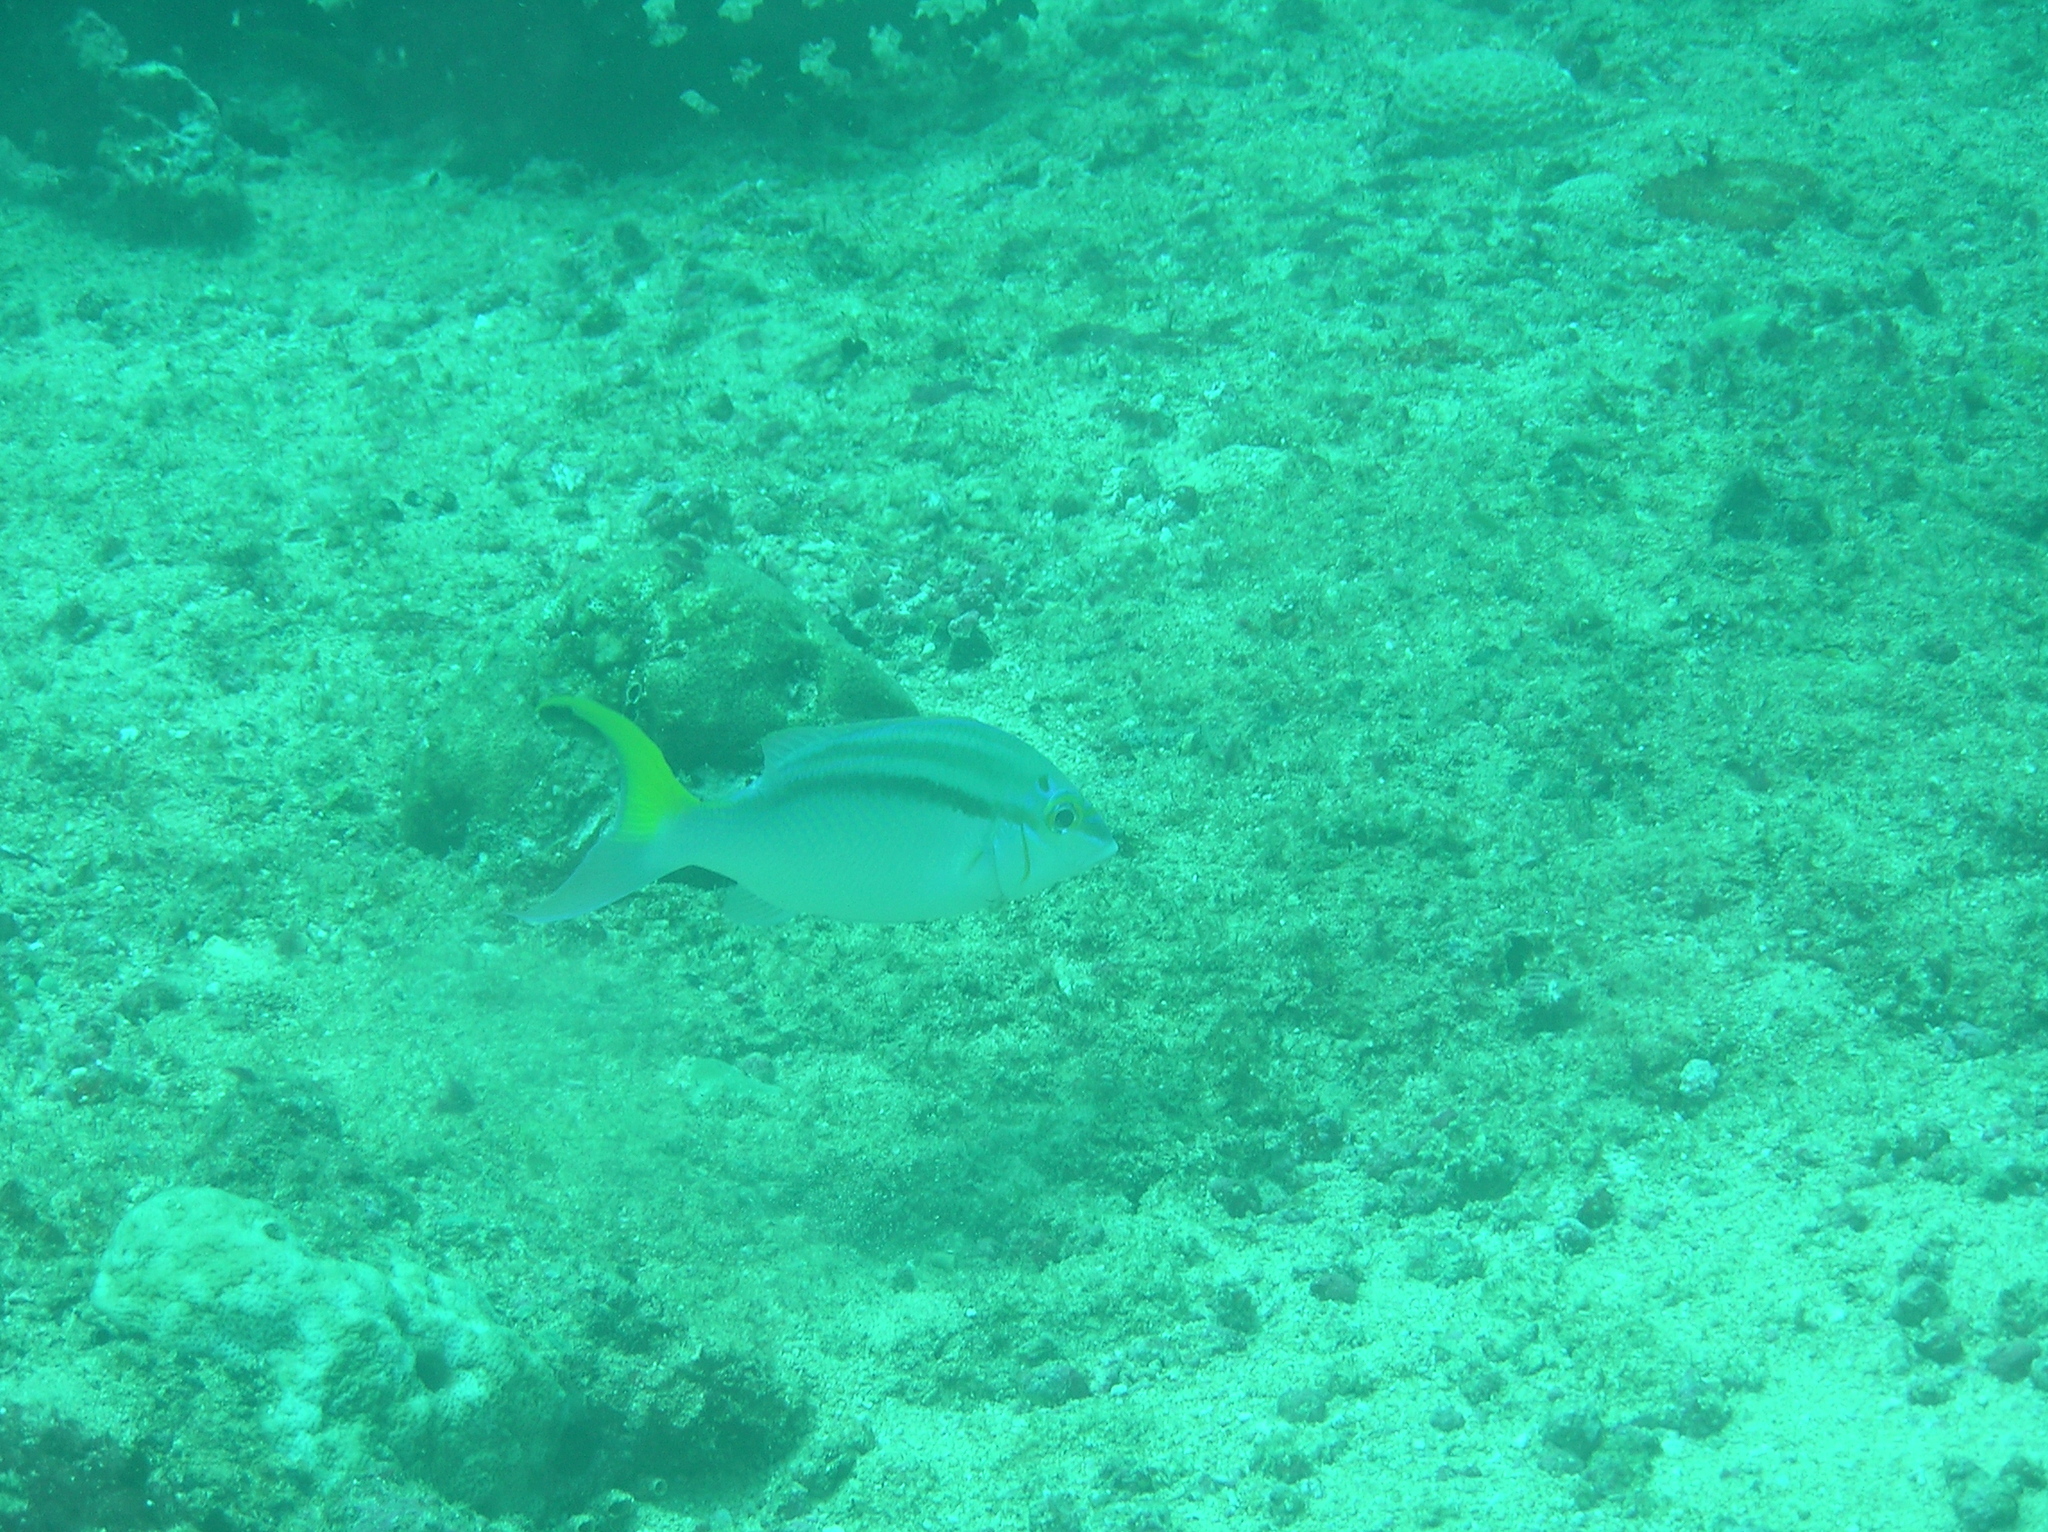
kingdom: Animalia
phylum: Chordata
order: Perciformes
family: Nemipteridae
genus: Scolopsis
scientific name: Scolopsis temporalis
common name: Bald-spot monocle bream
